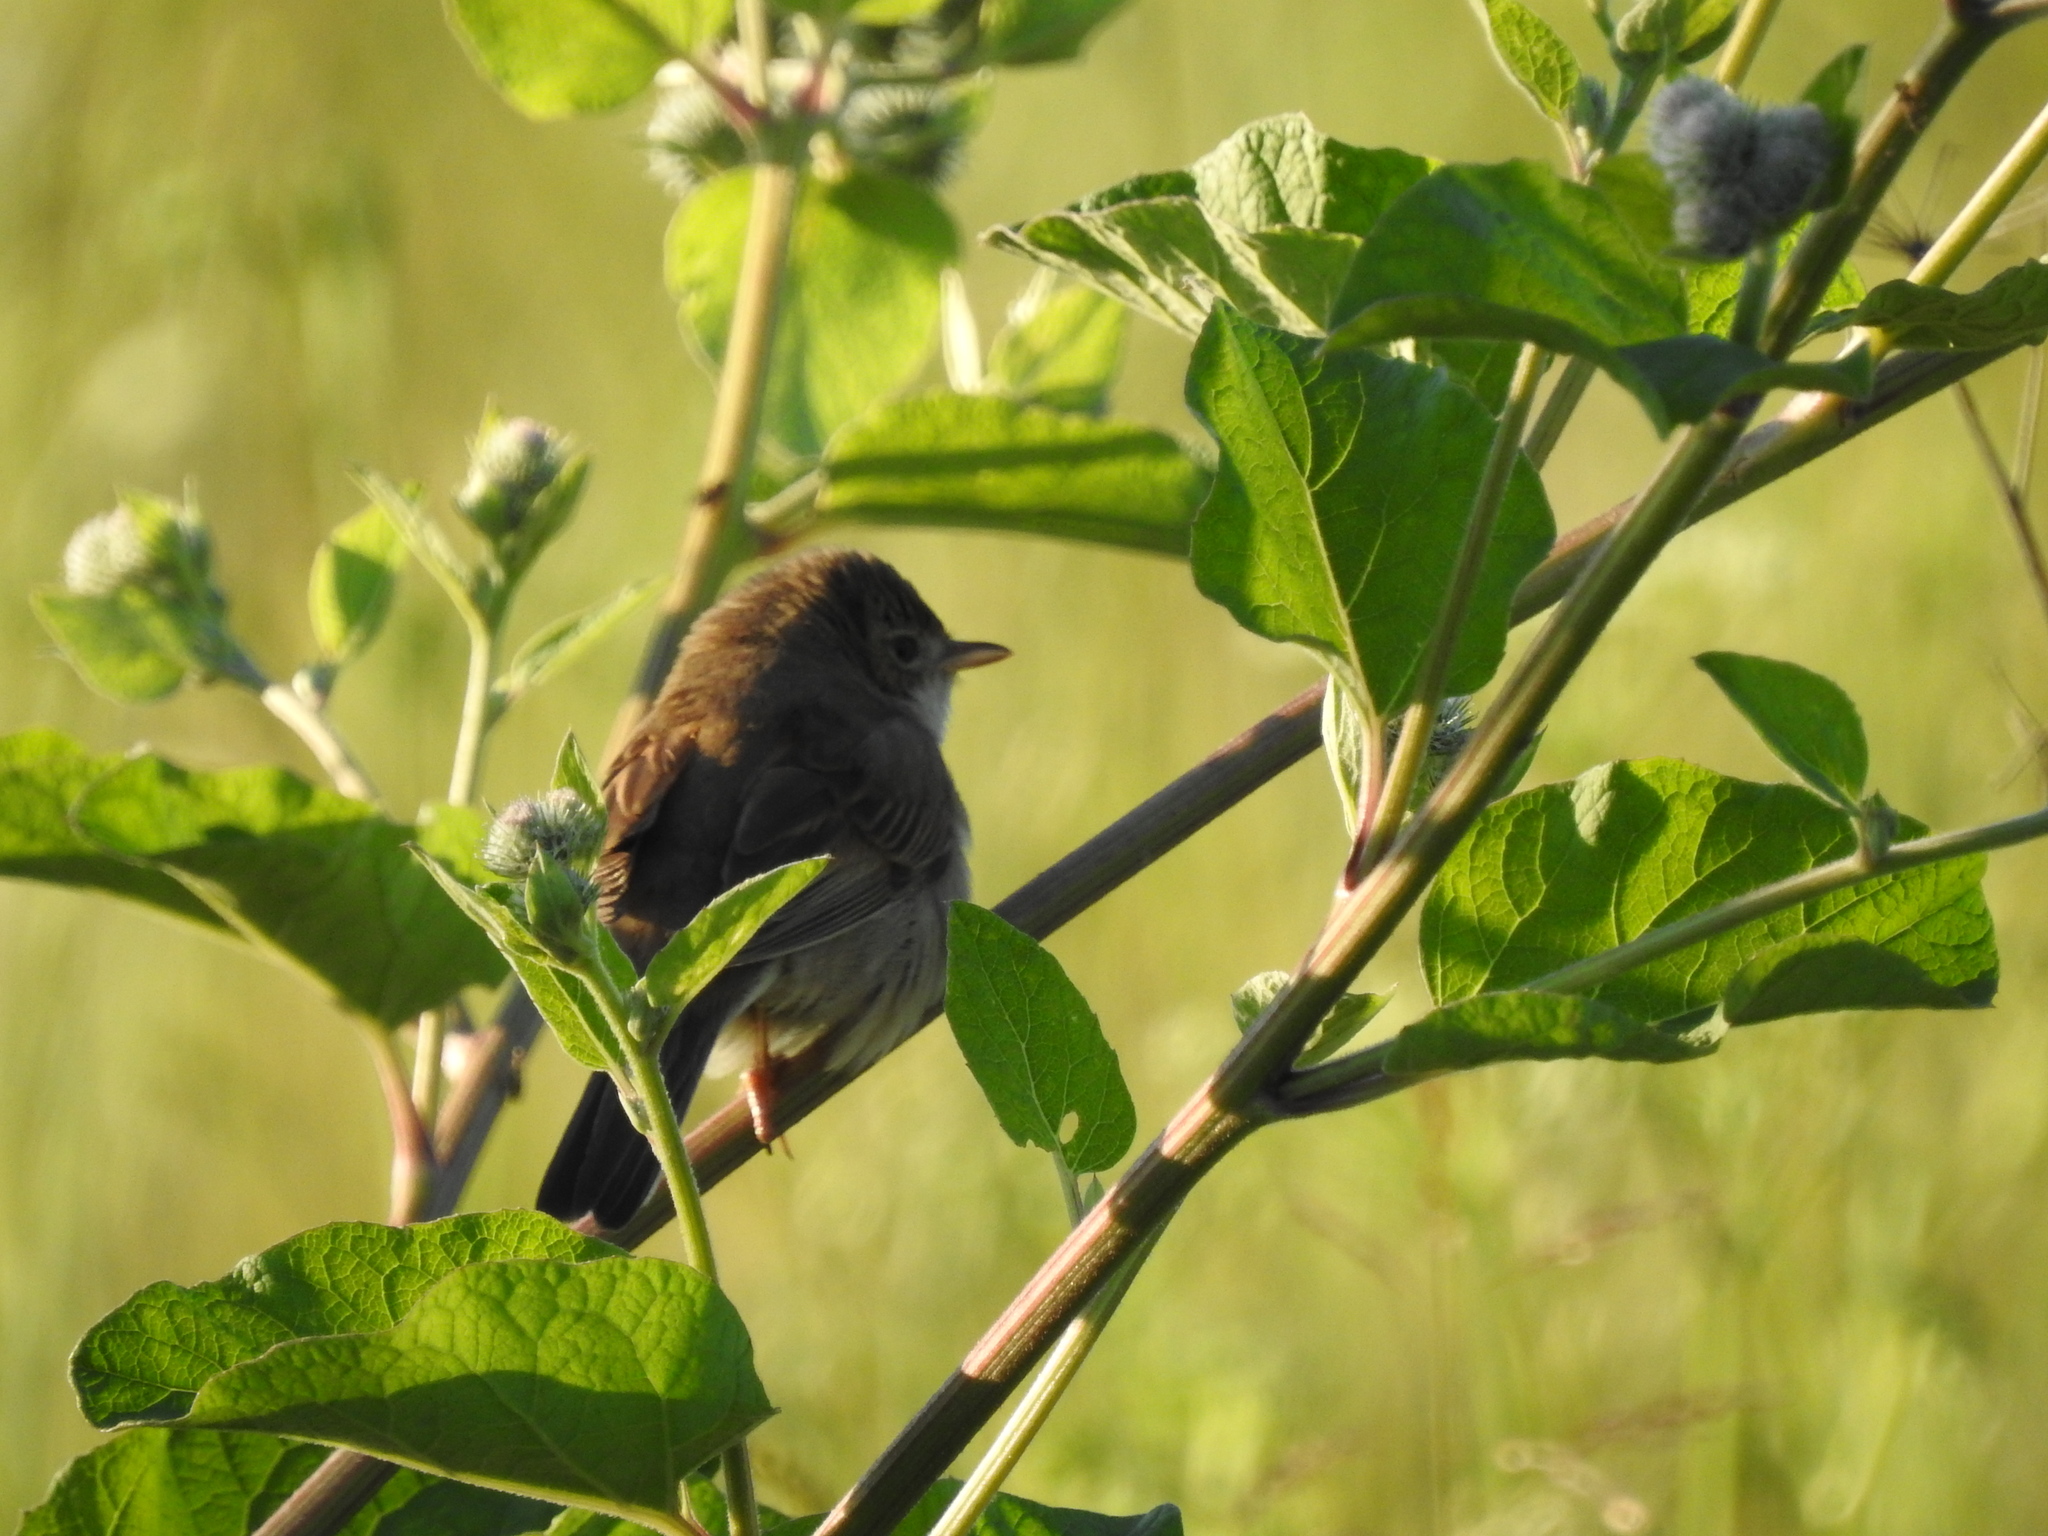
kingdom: Animalia
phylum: Chordata
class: Aves
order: Passeriformes
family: Sylviidae
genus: Sylvia
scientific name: Sylvia communis
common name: Common whitethroat
